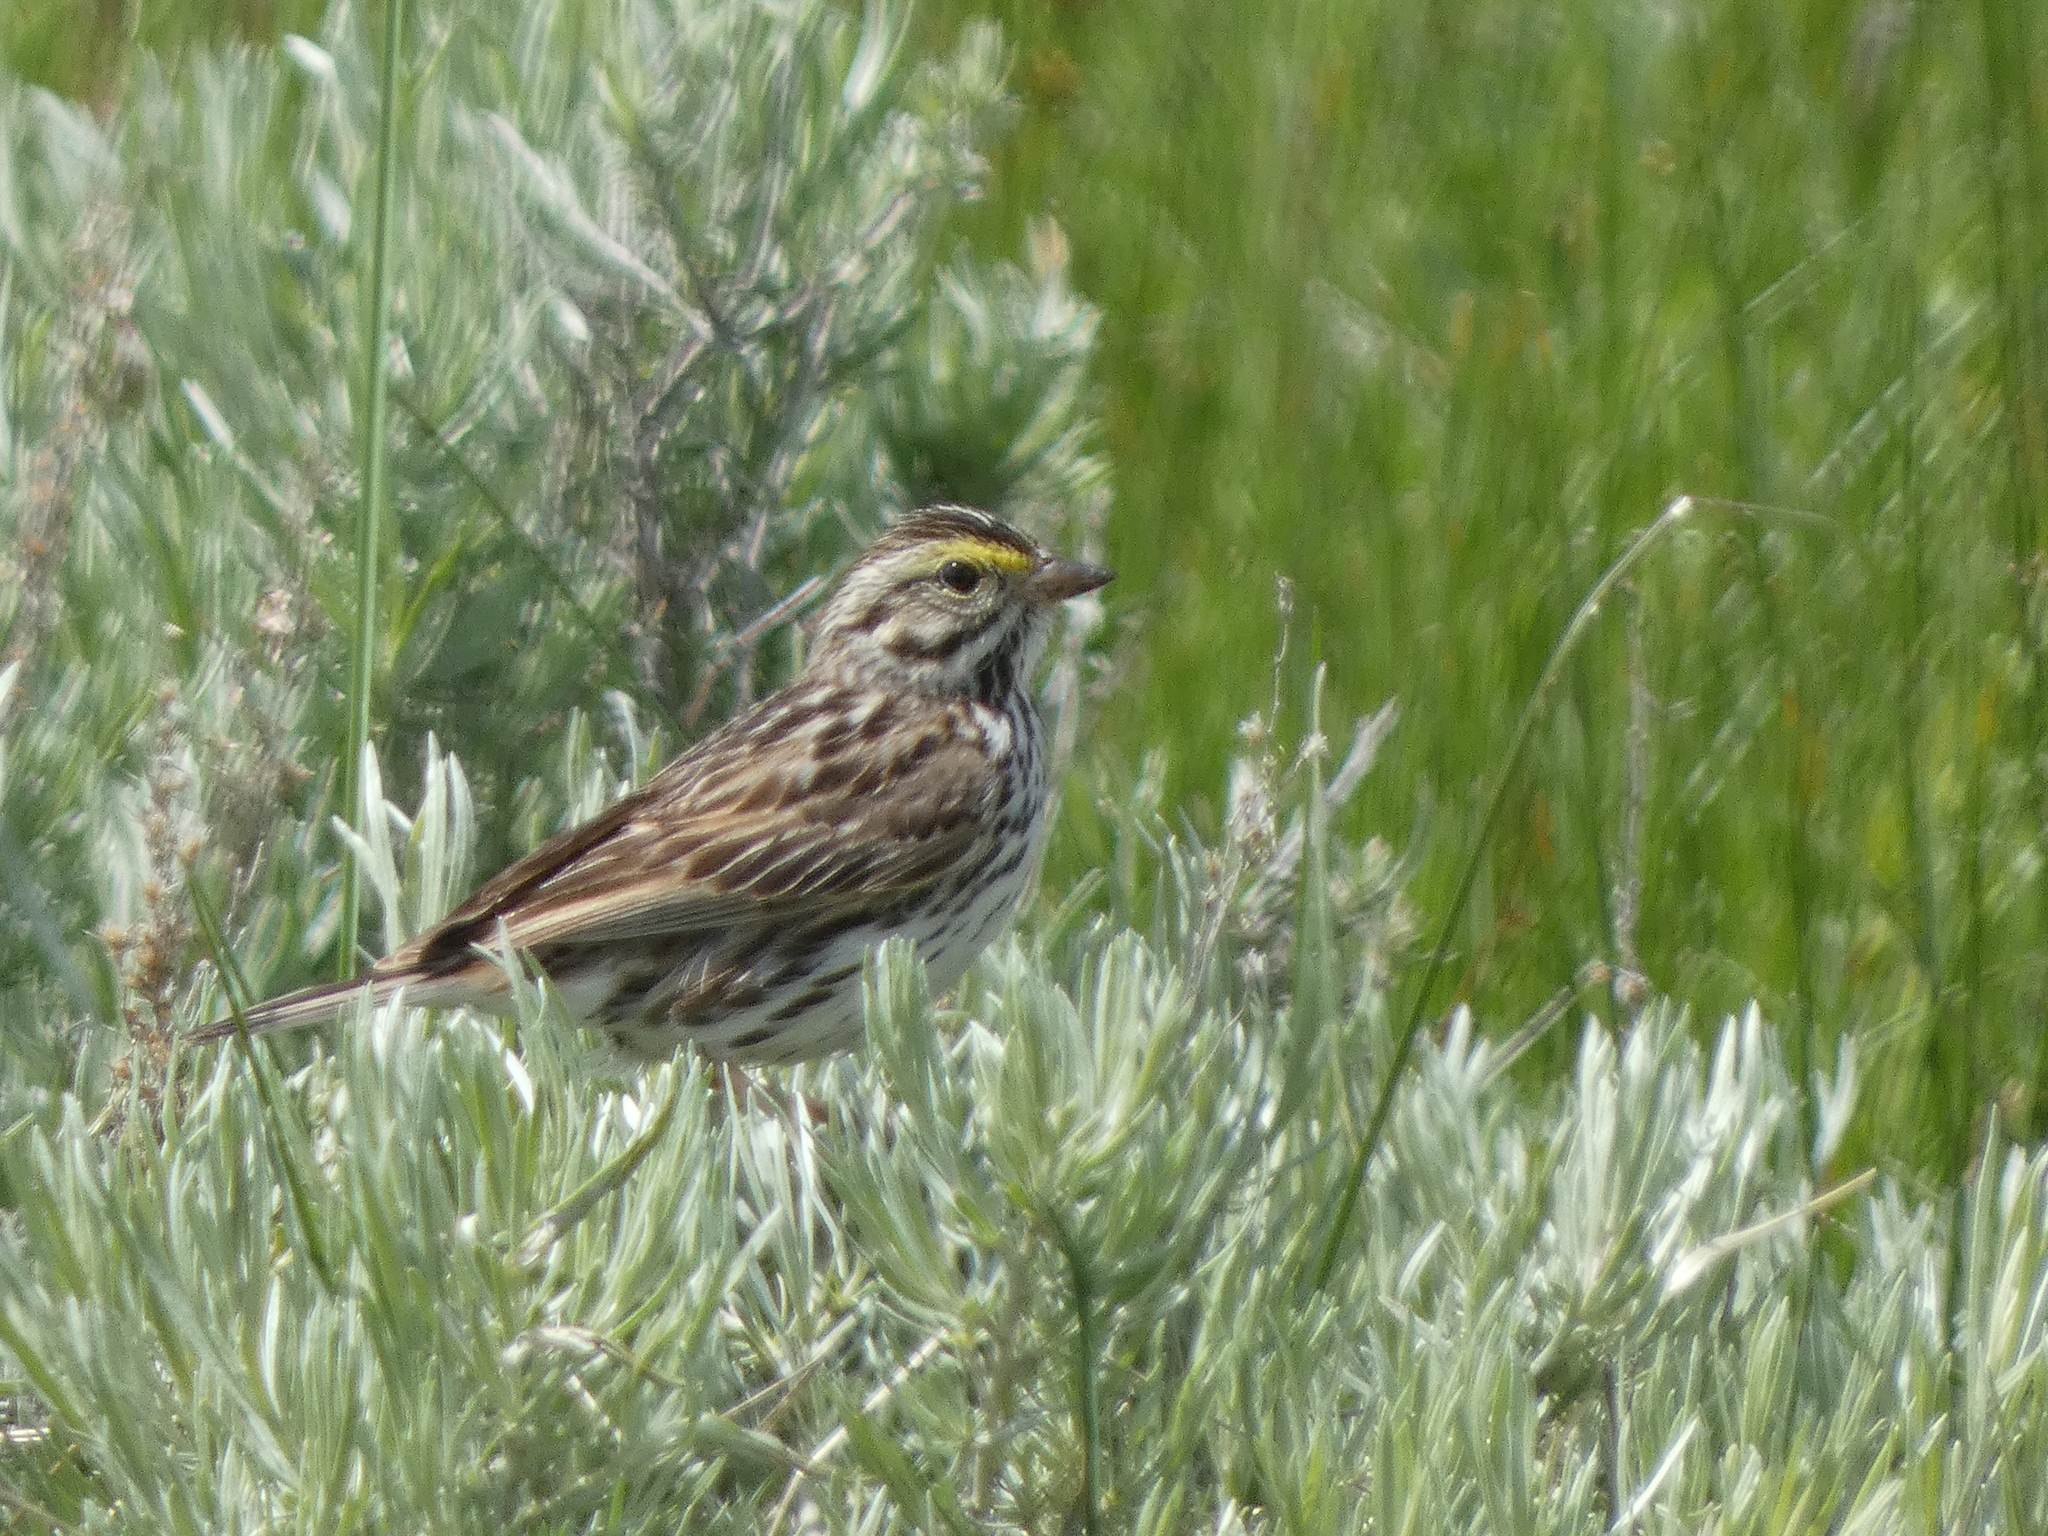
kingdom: Animalia
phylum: Chordata
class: Aves
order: Passeriformes
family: Passerellidae
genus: Passerculus
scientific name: Passerculus sandwichensis
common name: Savannah sparrow
